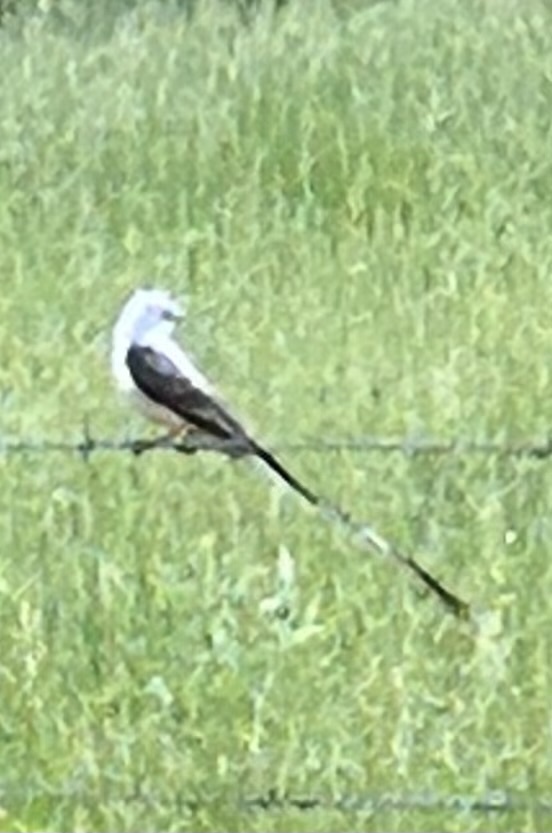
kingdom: Animalia
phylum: Chordata
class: Aves
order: Passeriformes
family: Tyrannidae
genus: Tyrannus
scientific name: Tyrannus forficatus
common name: Scissor-tailed flycatcher
